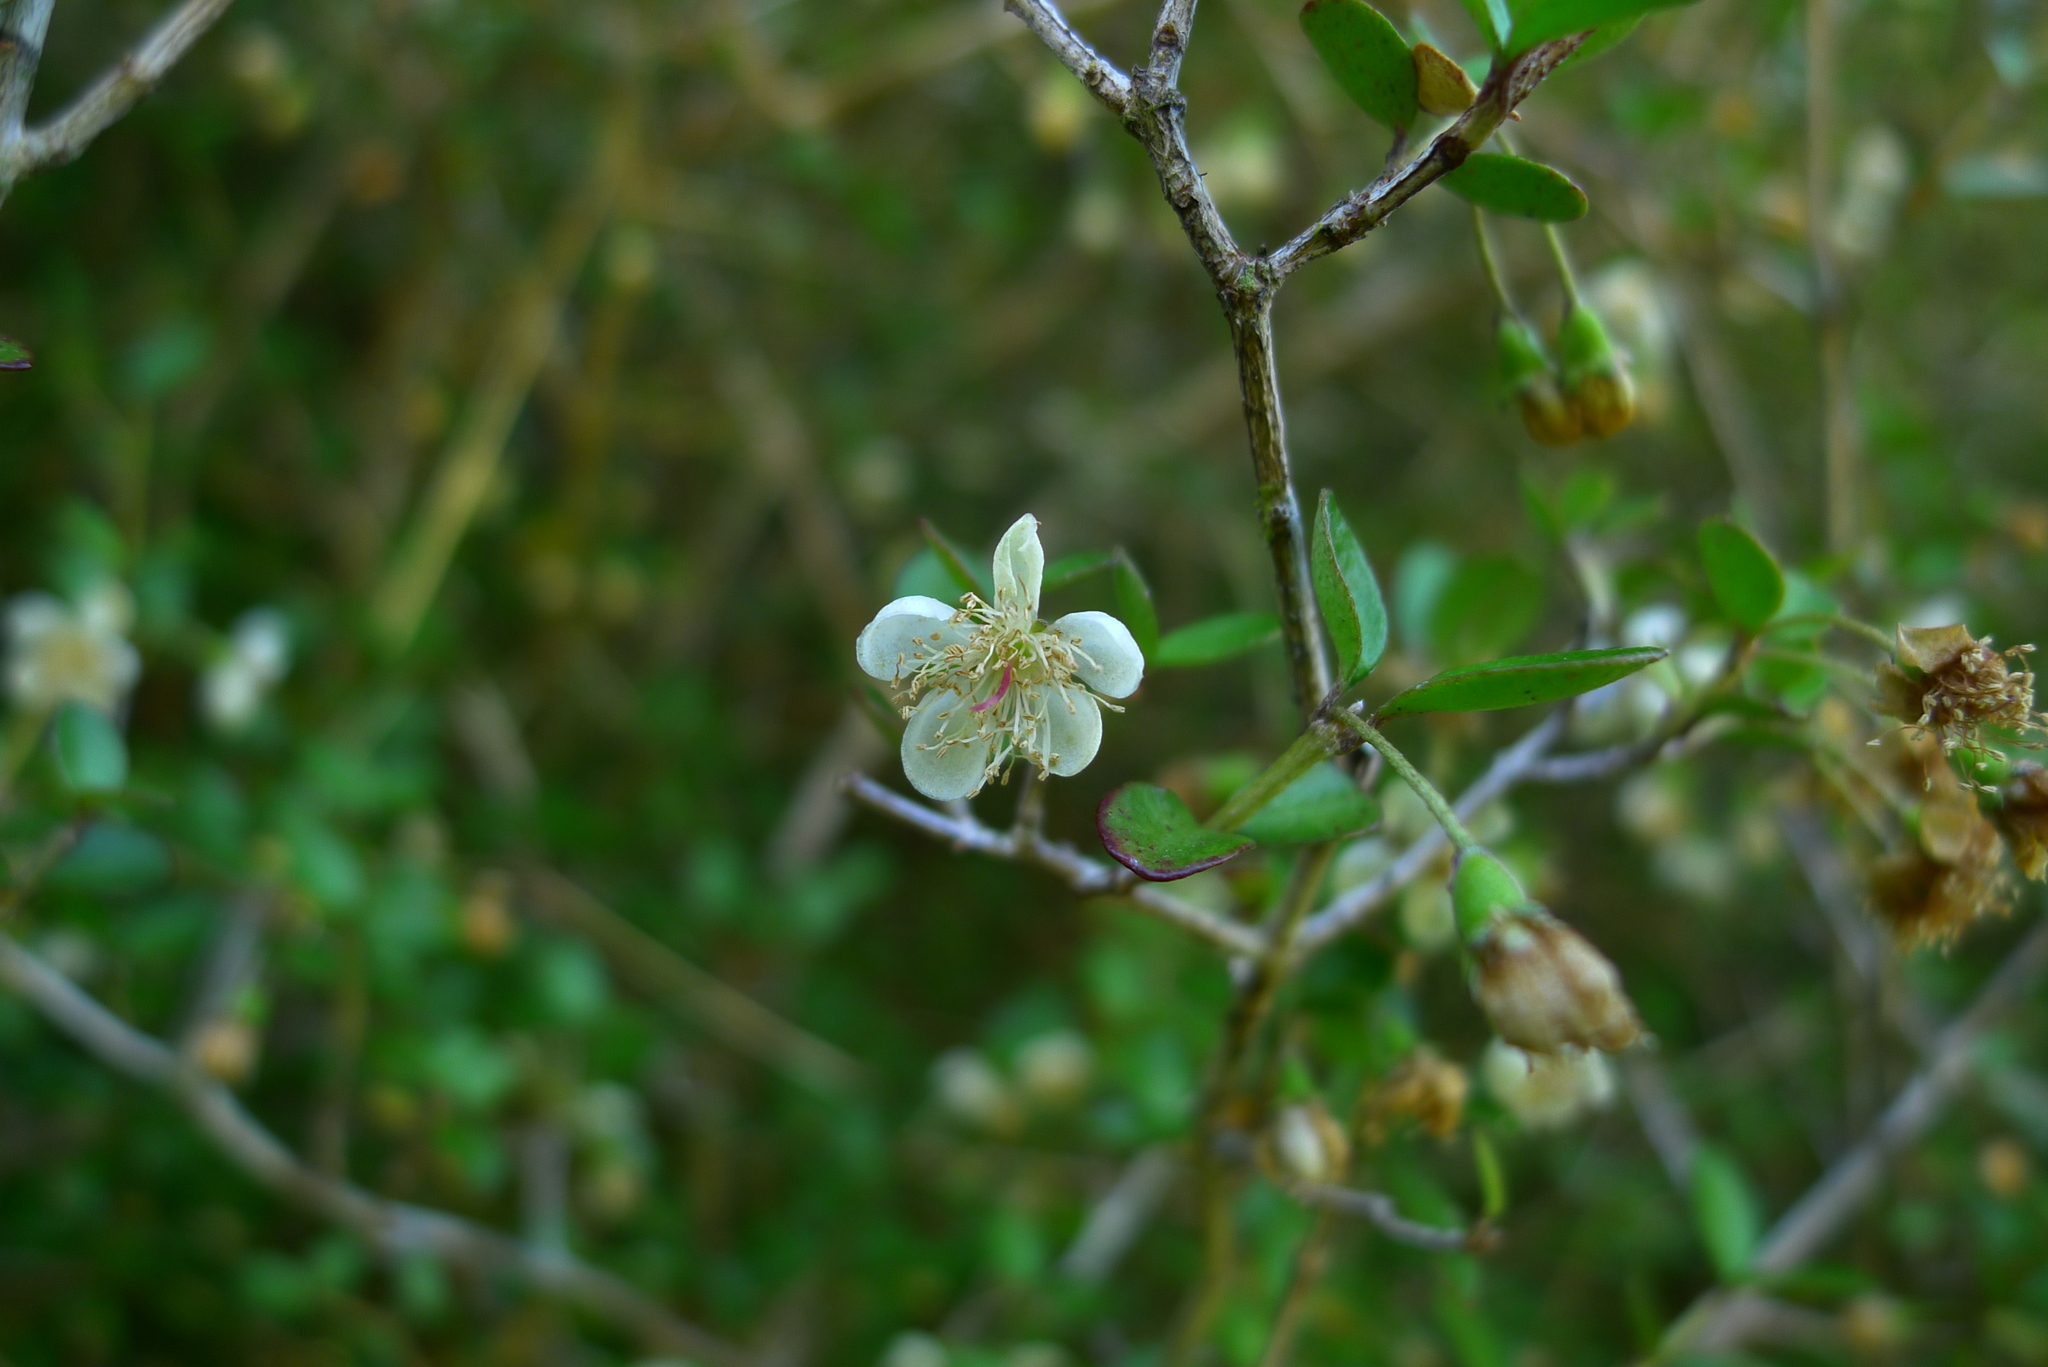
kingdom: Plantae
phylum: Tracheophyta
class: Magnoliopsida
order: Myrtales
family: Myrtaceae
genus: Neomyrtus
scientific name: Neomyrtus pedunculata
